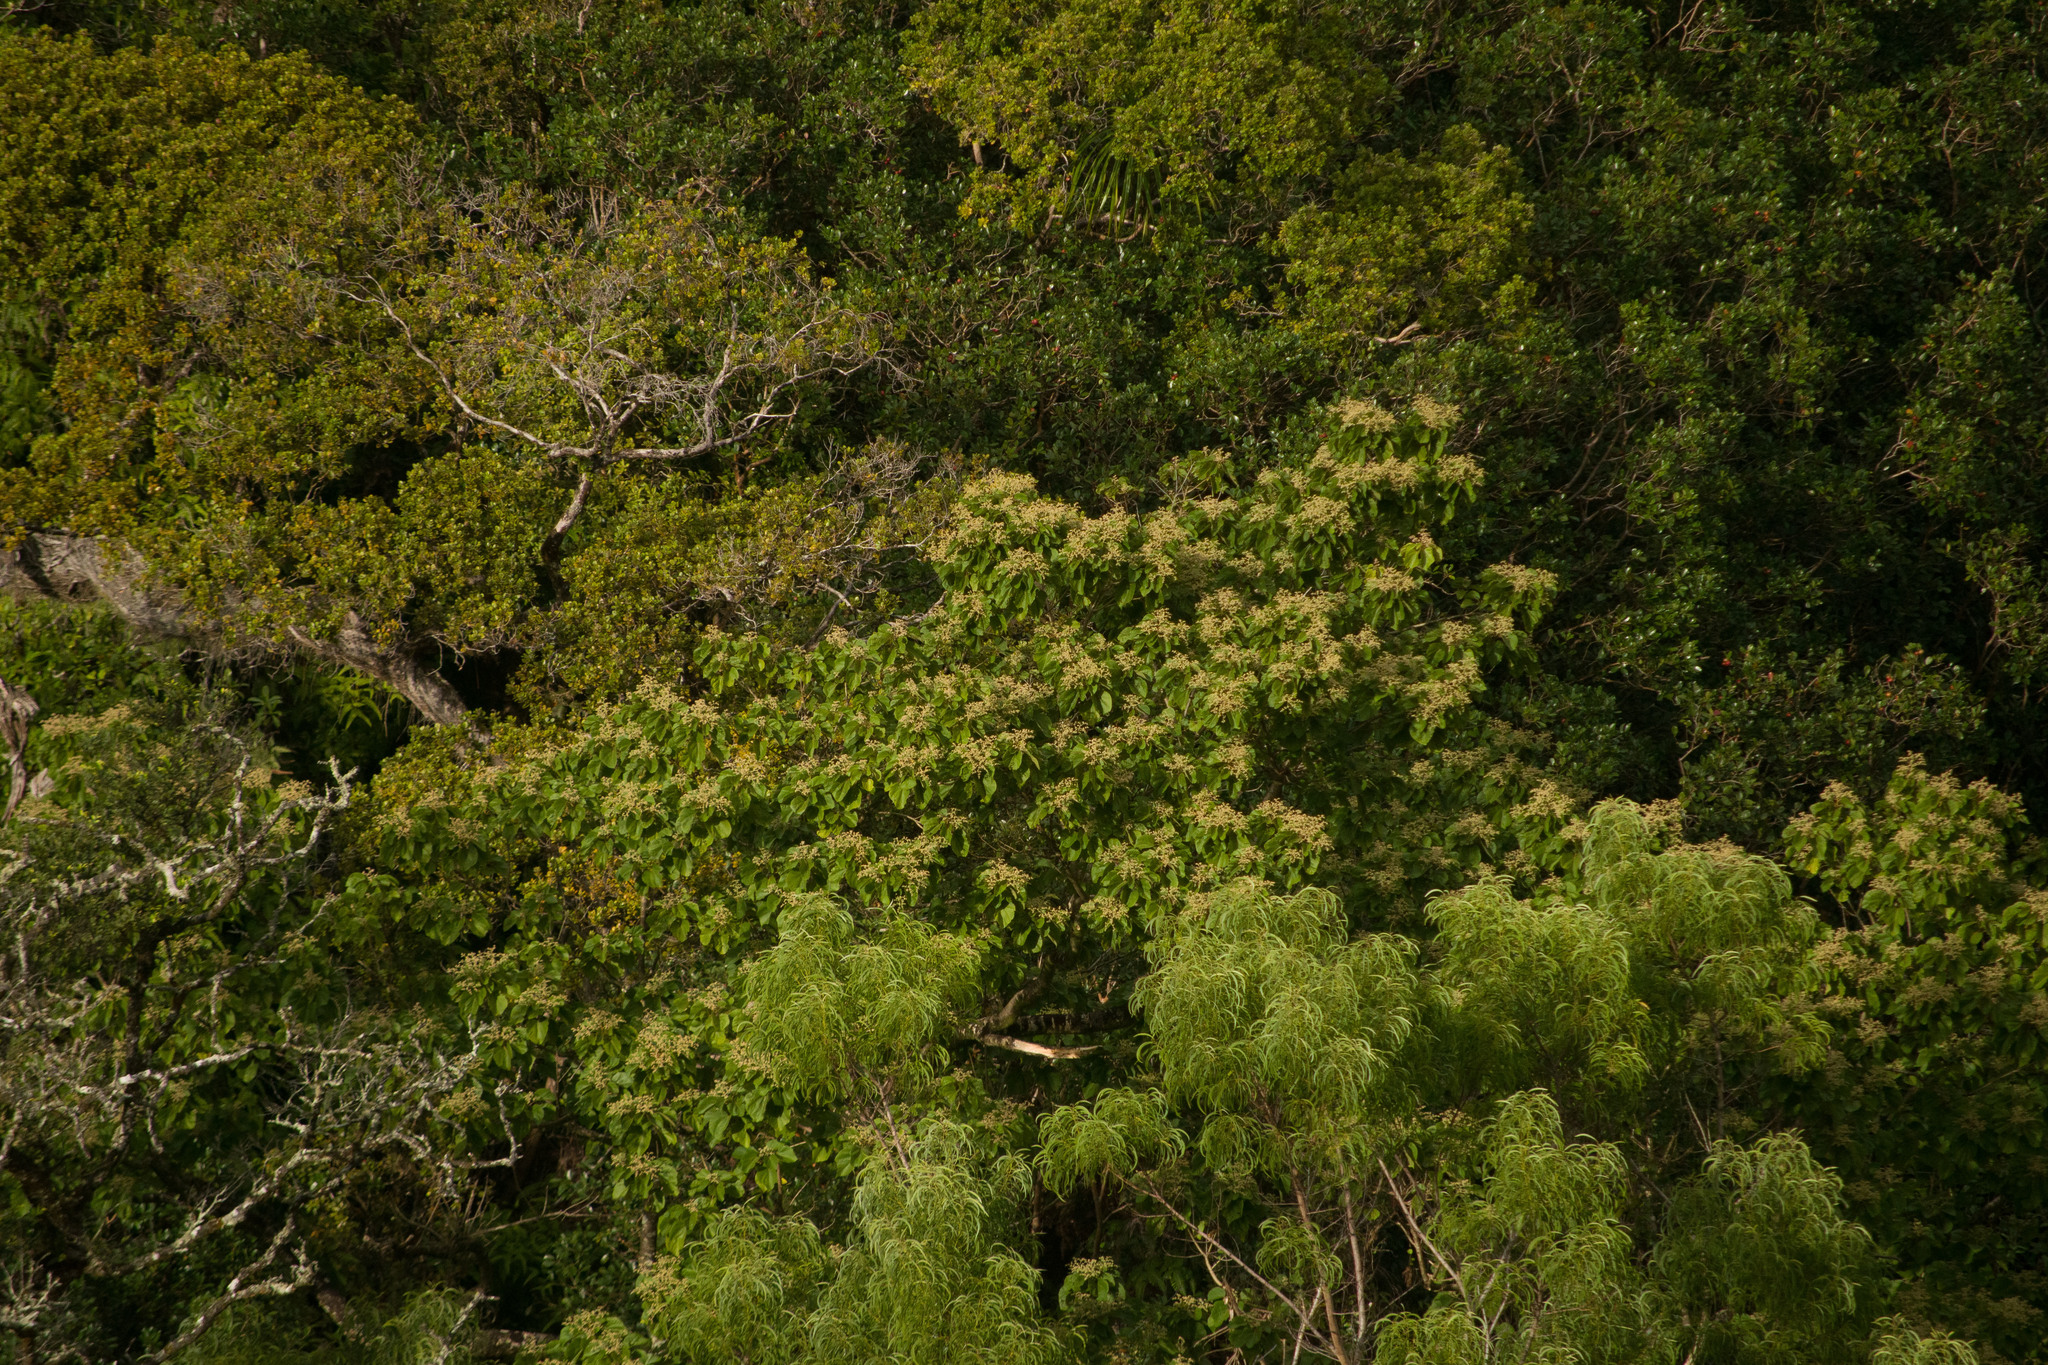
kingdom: Plantae
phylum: Tracheophyta
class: Magnoliopsida
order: Fabales
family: Fabaceae
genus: Acacia
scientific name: Acacia koa
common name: Gray koa
